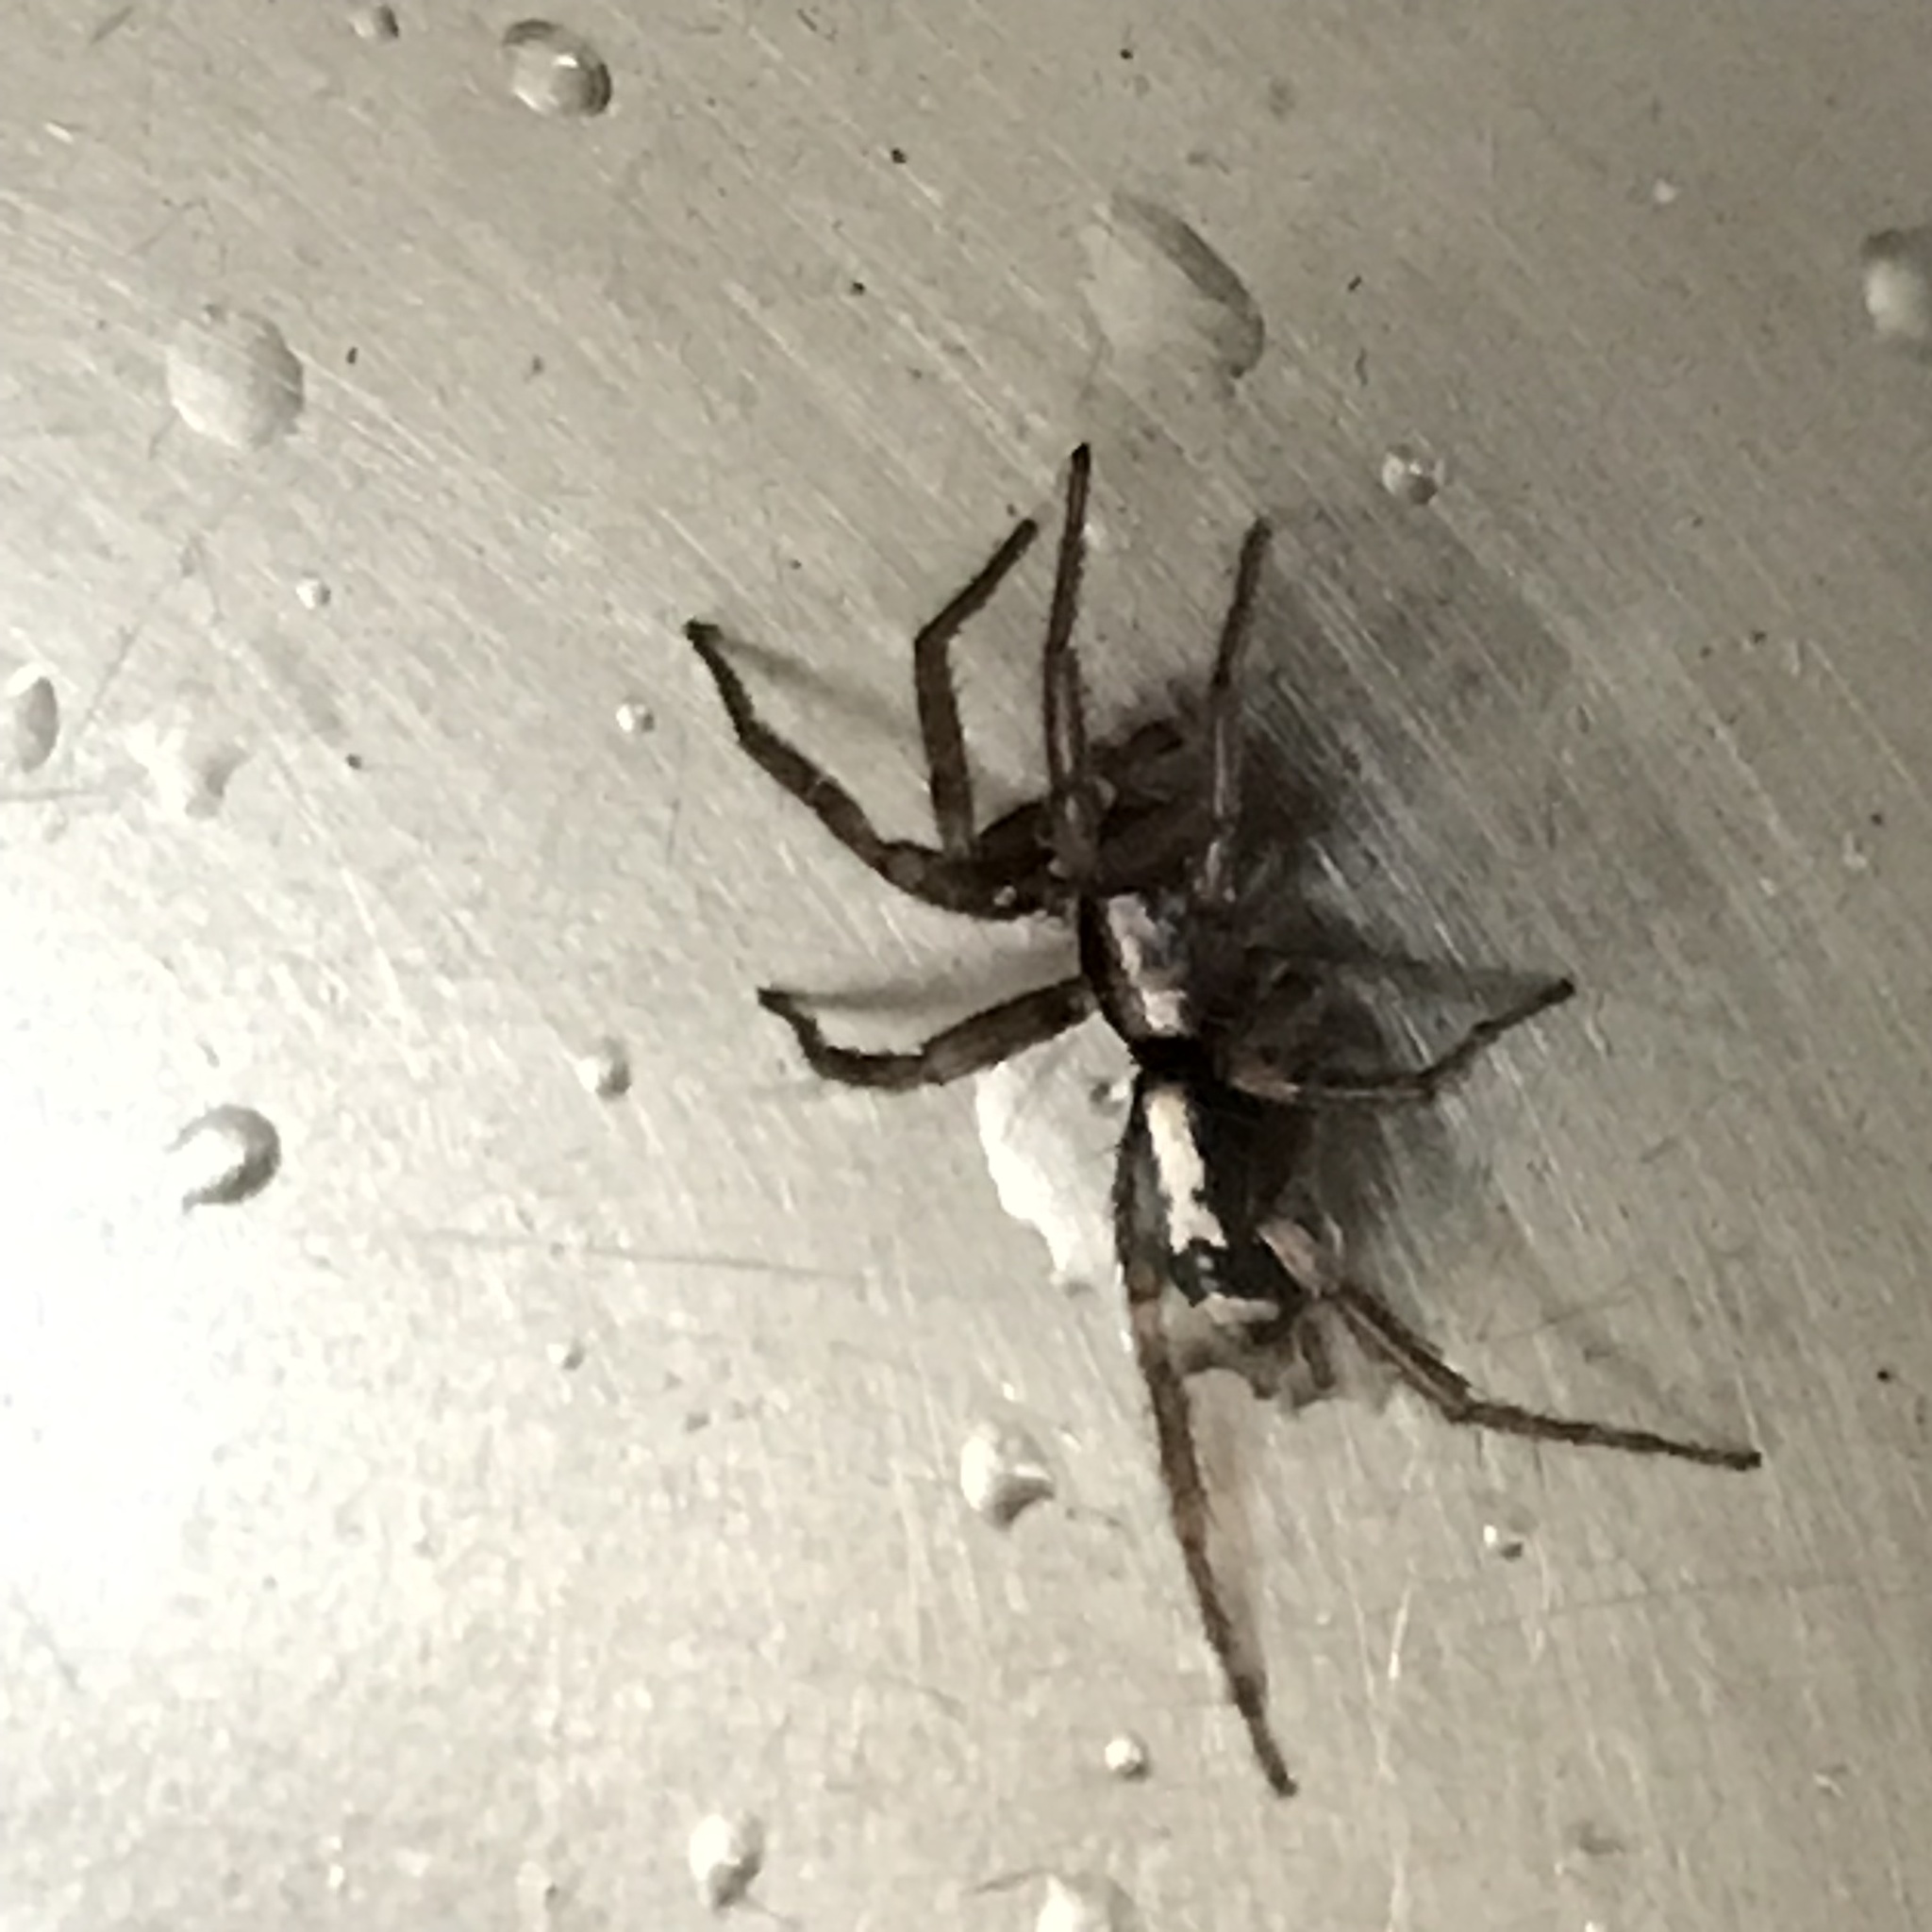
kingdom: Animalia
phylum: Arthropoda
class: Arachnida
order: Araneae
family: Gnaphosidae
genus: Herpyllus
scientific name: Herpyllus ecclesiasticus
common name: Eastern parson spider
